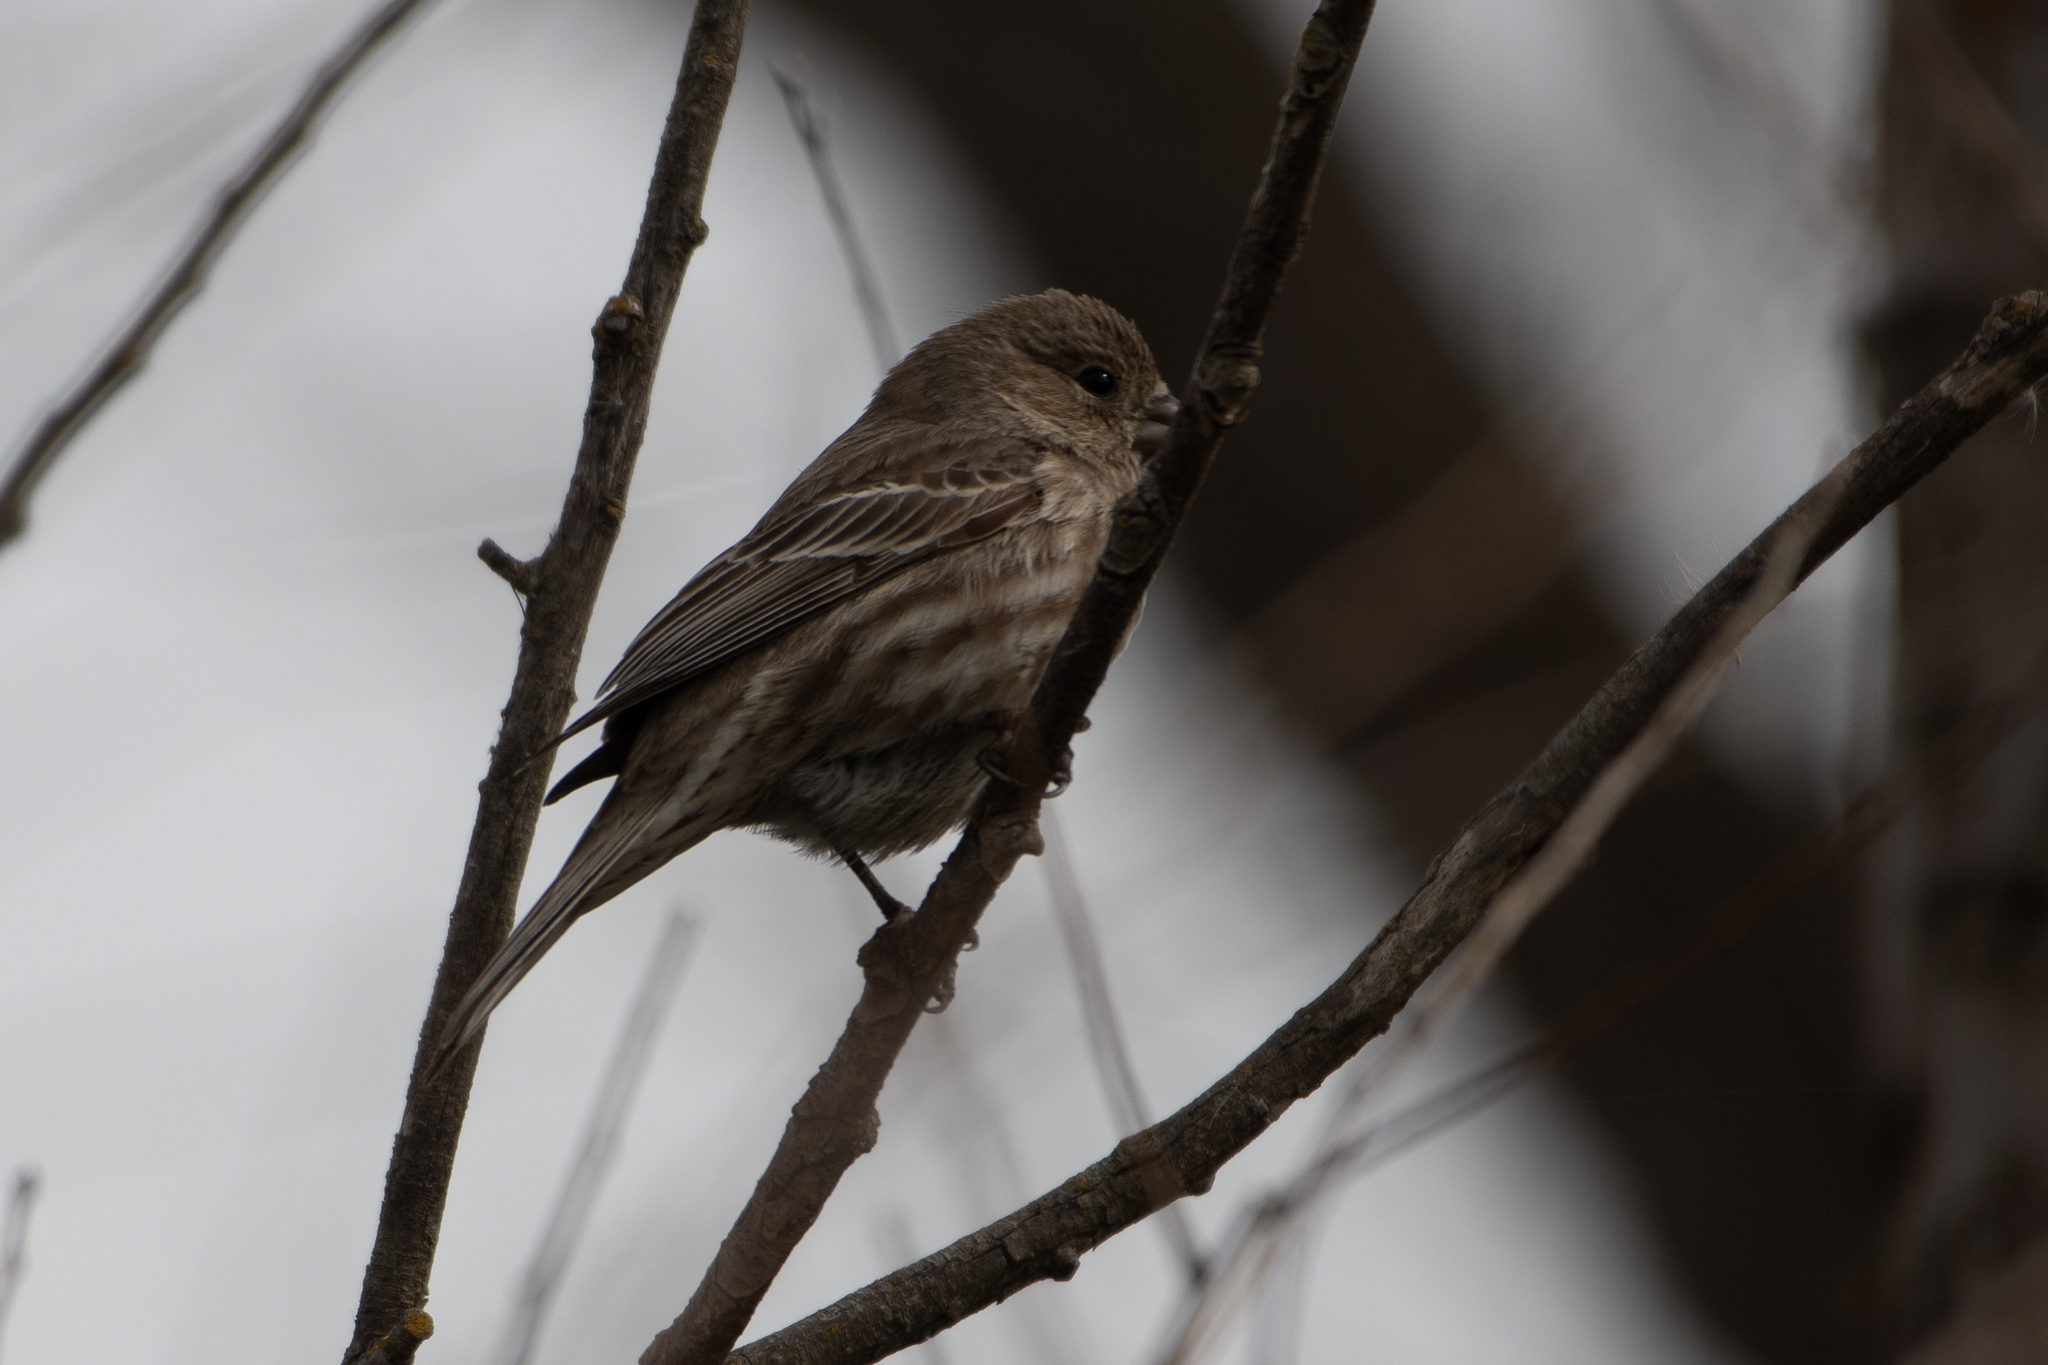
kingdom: Animalia
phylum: Chordata
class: Aves
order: Passeriformes
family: Fringillidae
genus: Haemorhous
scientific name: Haemorhous mexicanus
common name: House finch
